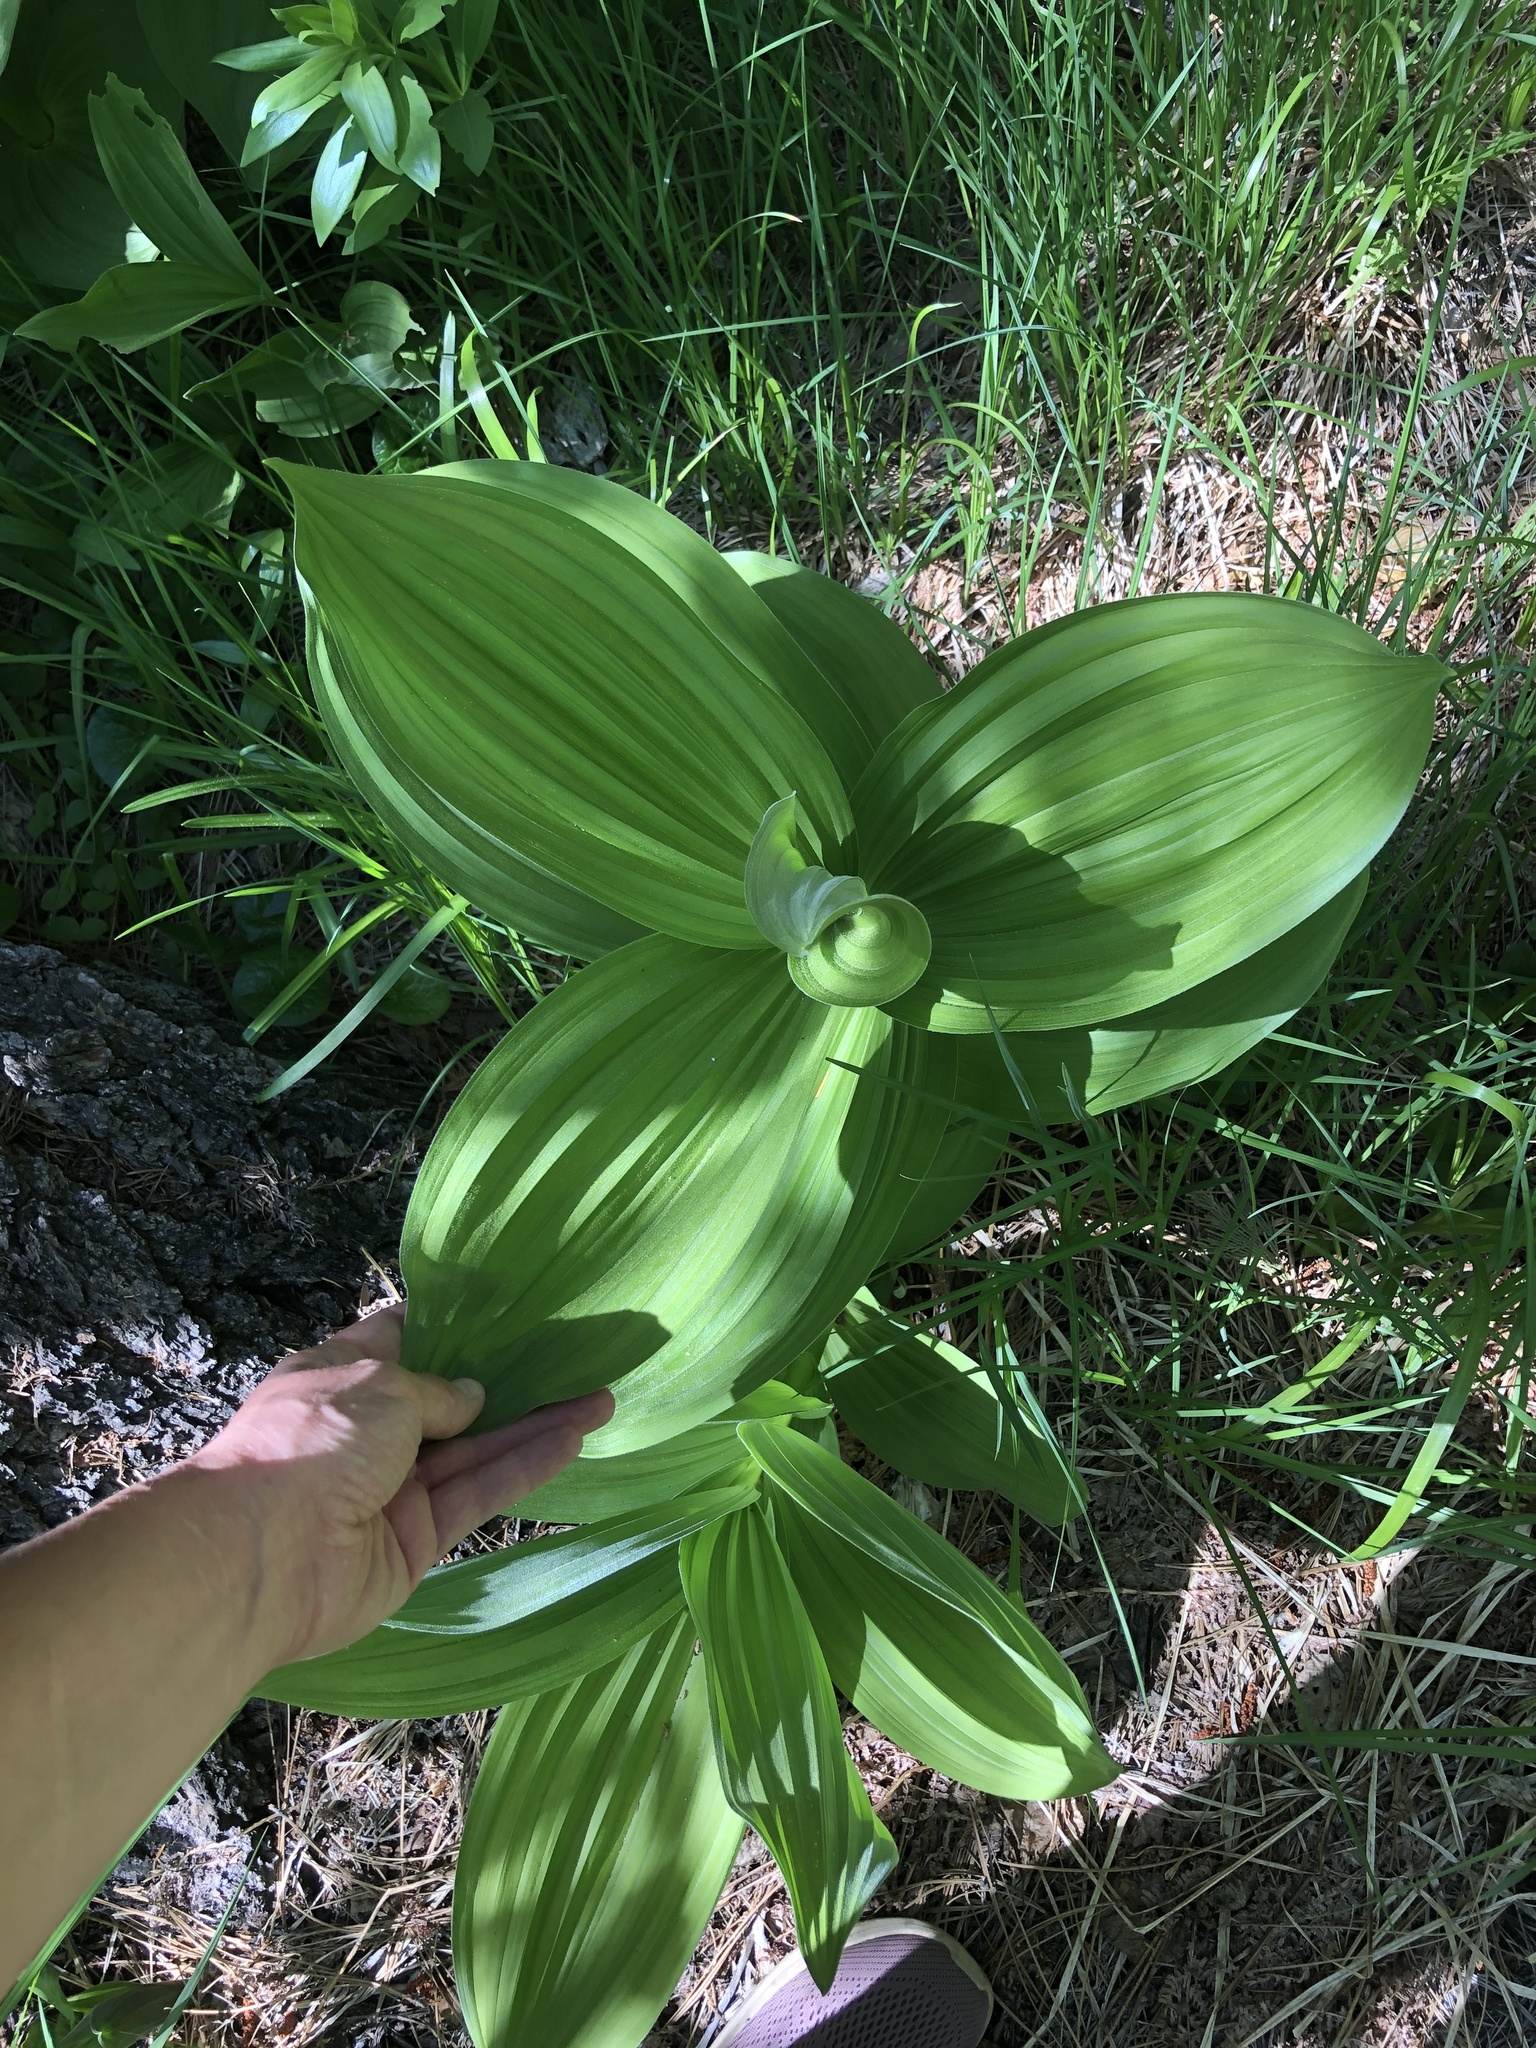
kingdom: Plantae
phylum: Tracheophyta
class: Liliopsida
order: Liliales
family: Melanthiaceae
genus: Veratrum
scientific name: Veratrum californicum
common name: California veratrum
